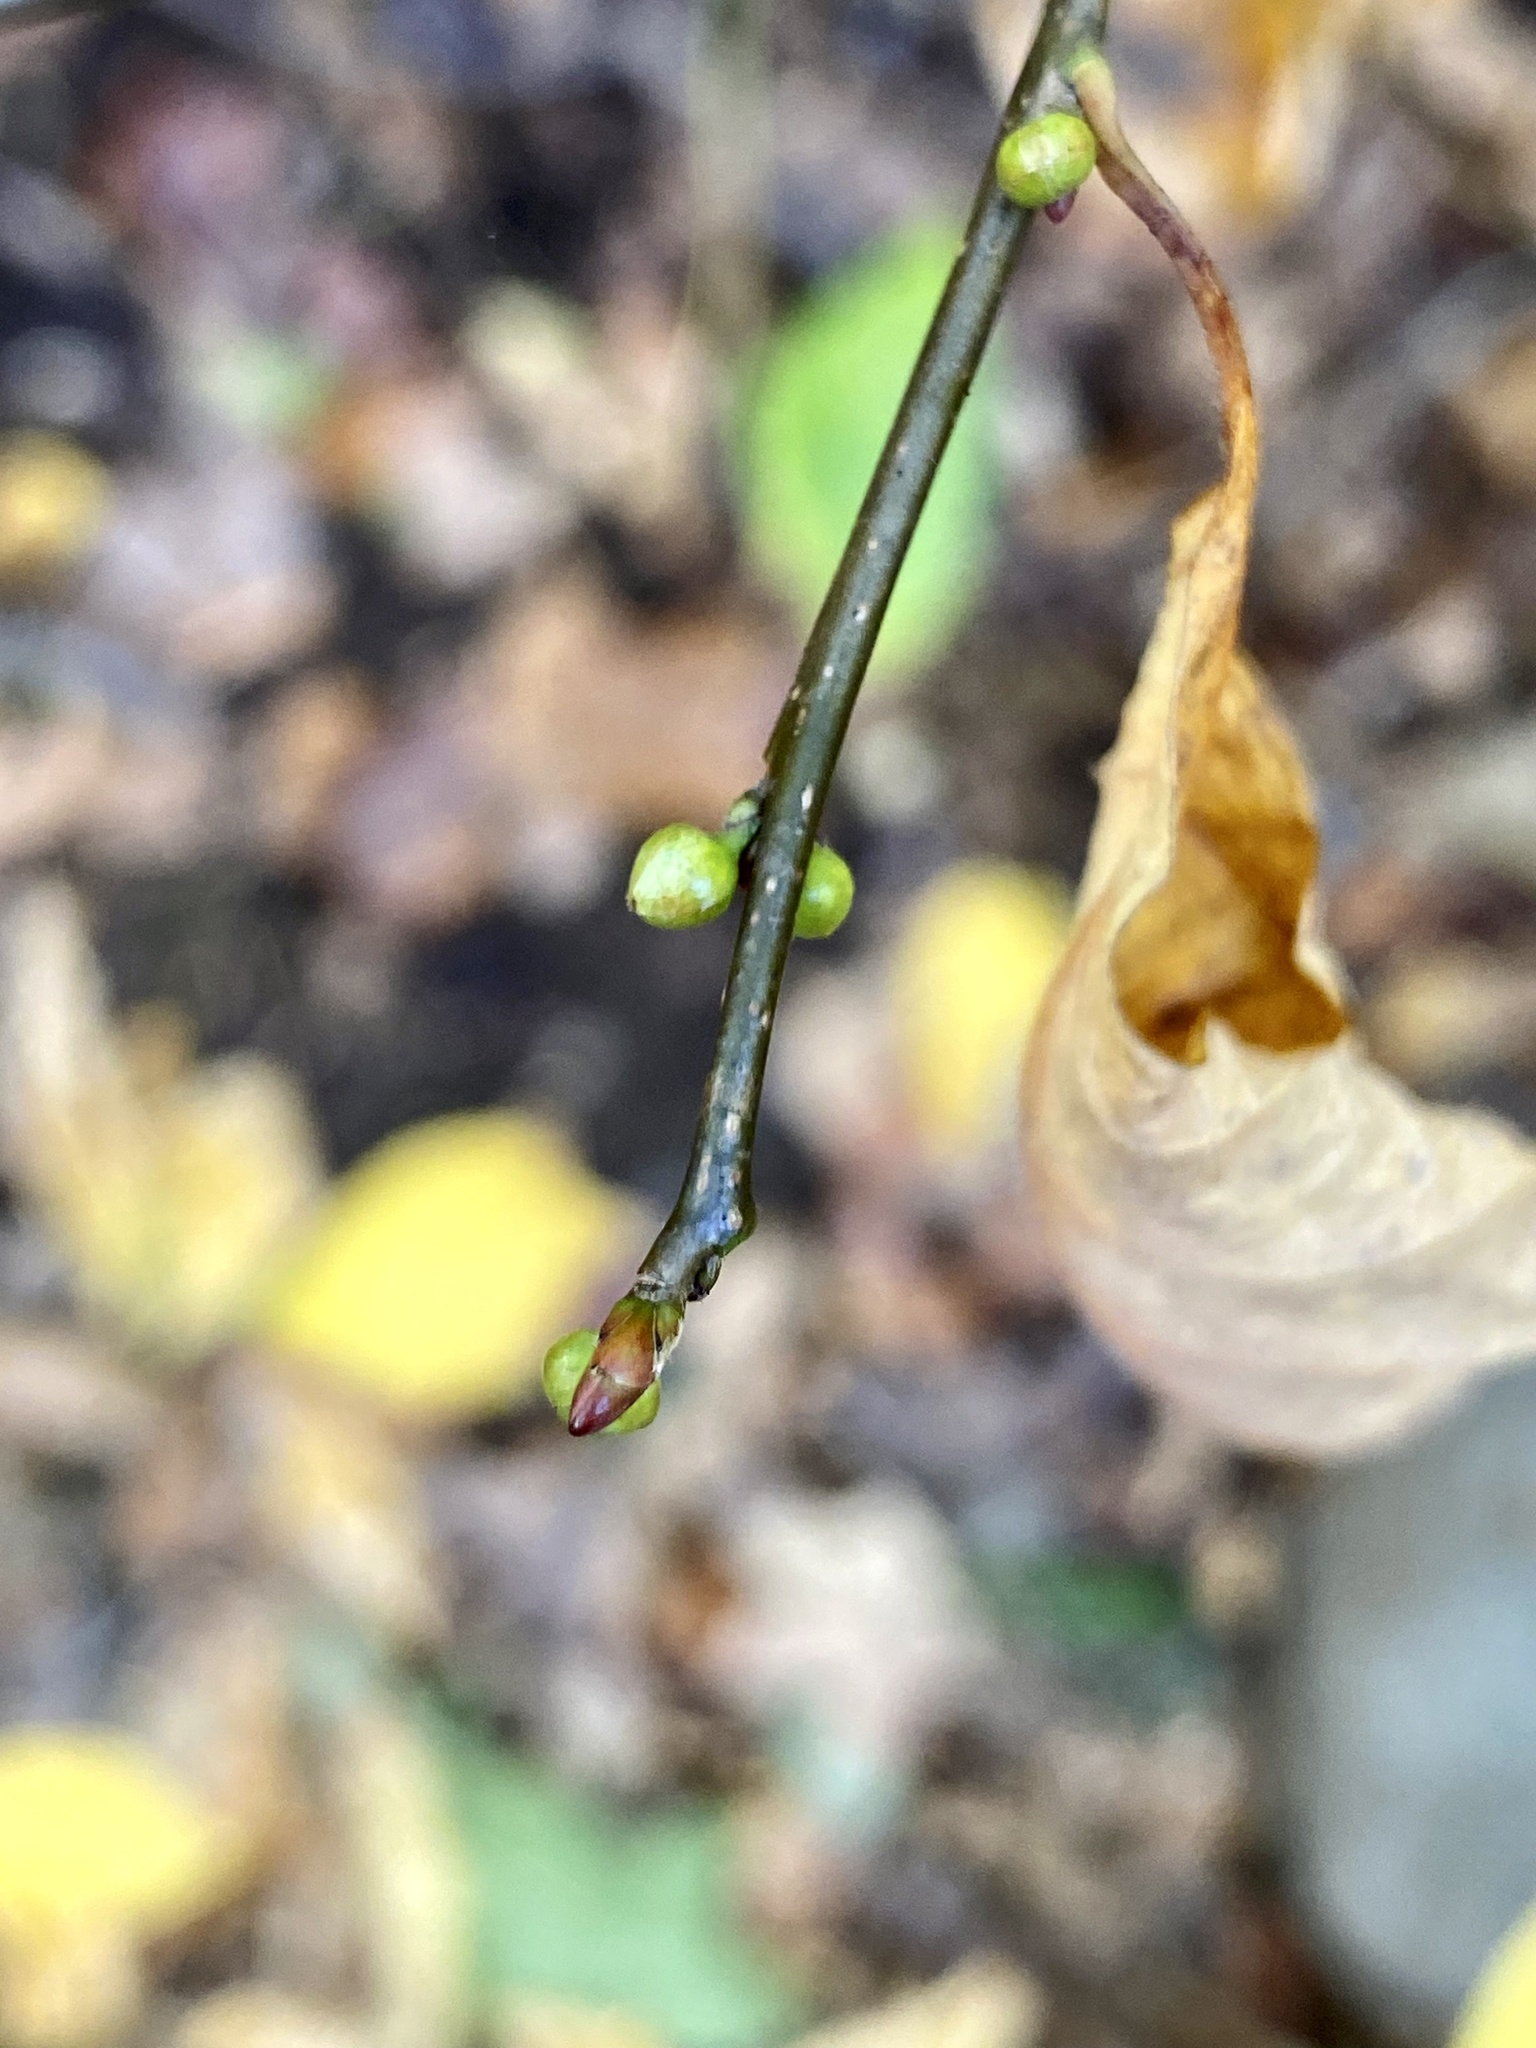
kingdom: Plantae
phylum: Tracheophyta
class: Magnoliopsida
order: Laurales
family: Lauraceae
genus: Lindera
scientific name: Lindera benzoin
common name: Spicebush
